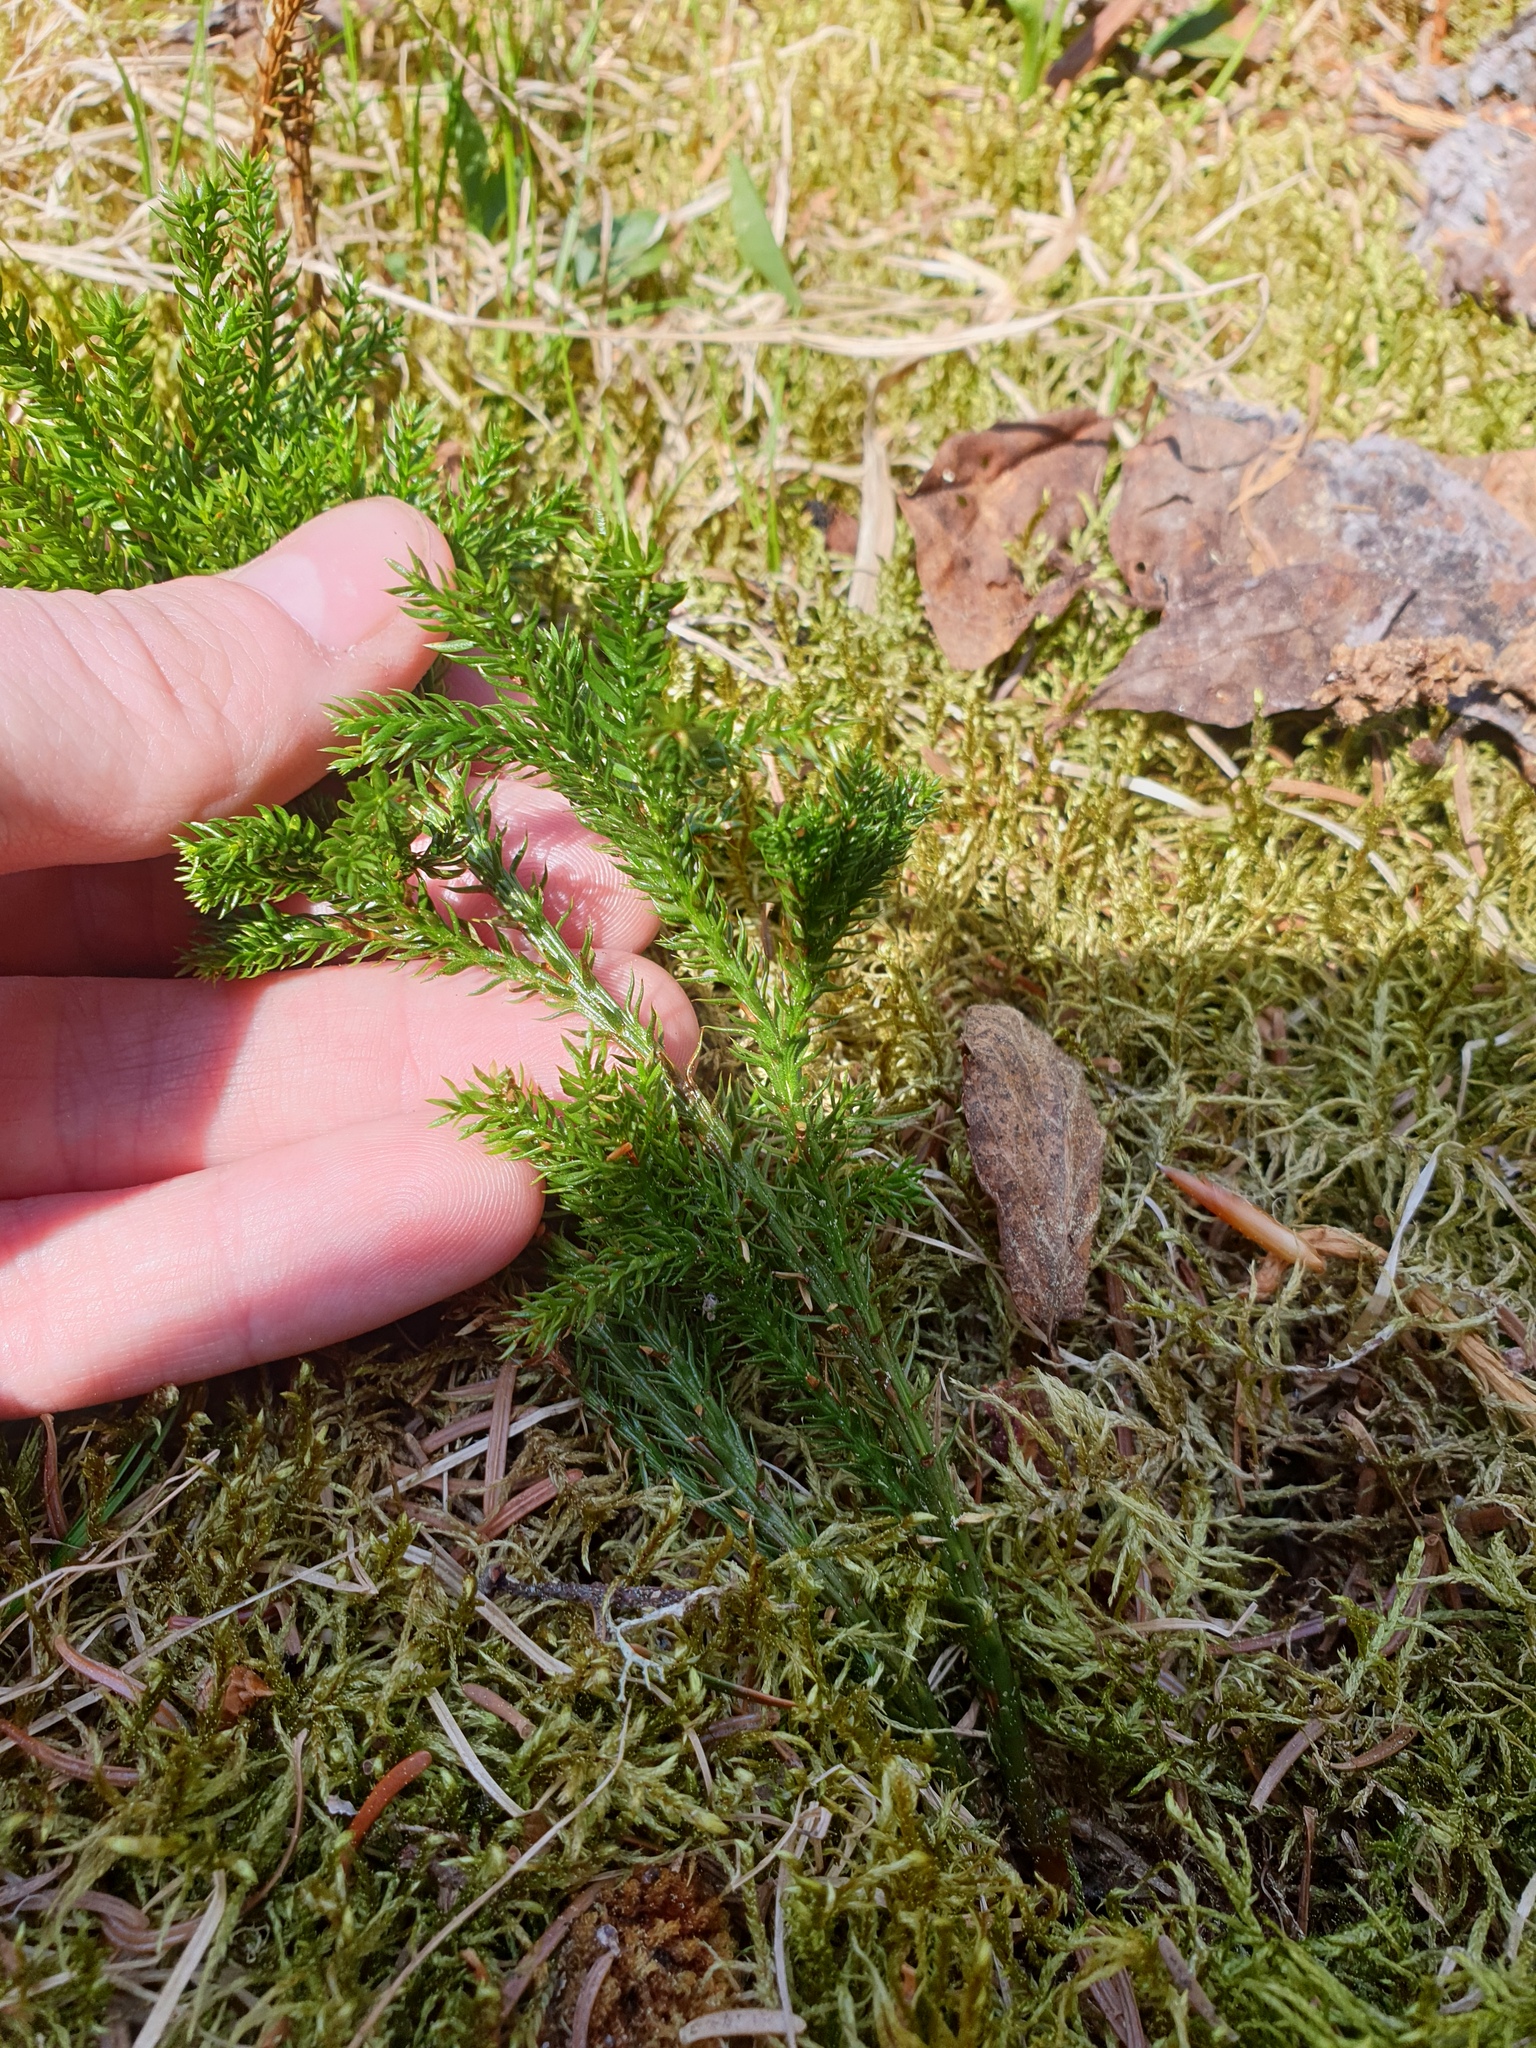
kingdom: Plantae
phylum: Tracheophyta
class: Lycopodiopsida
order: Lycopodiales
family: Lycopodiaceae
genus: Dendrolycopodium
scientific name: Dendrolycopodium dendroideum
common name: Northern tree-clubmoss
